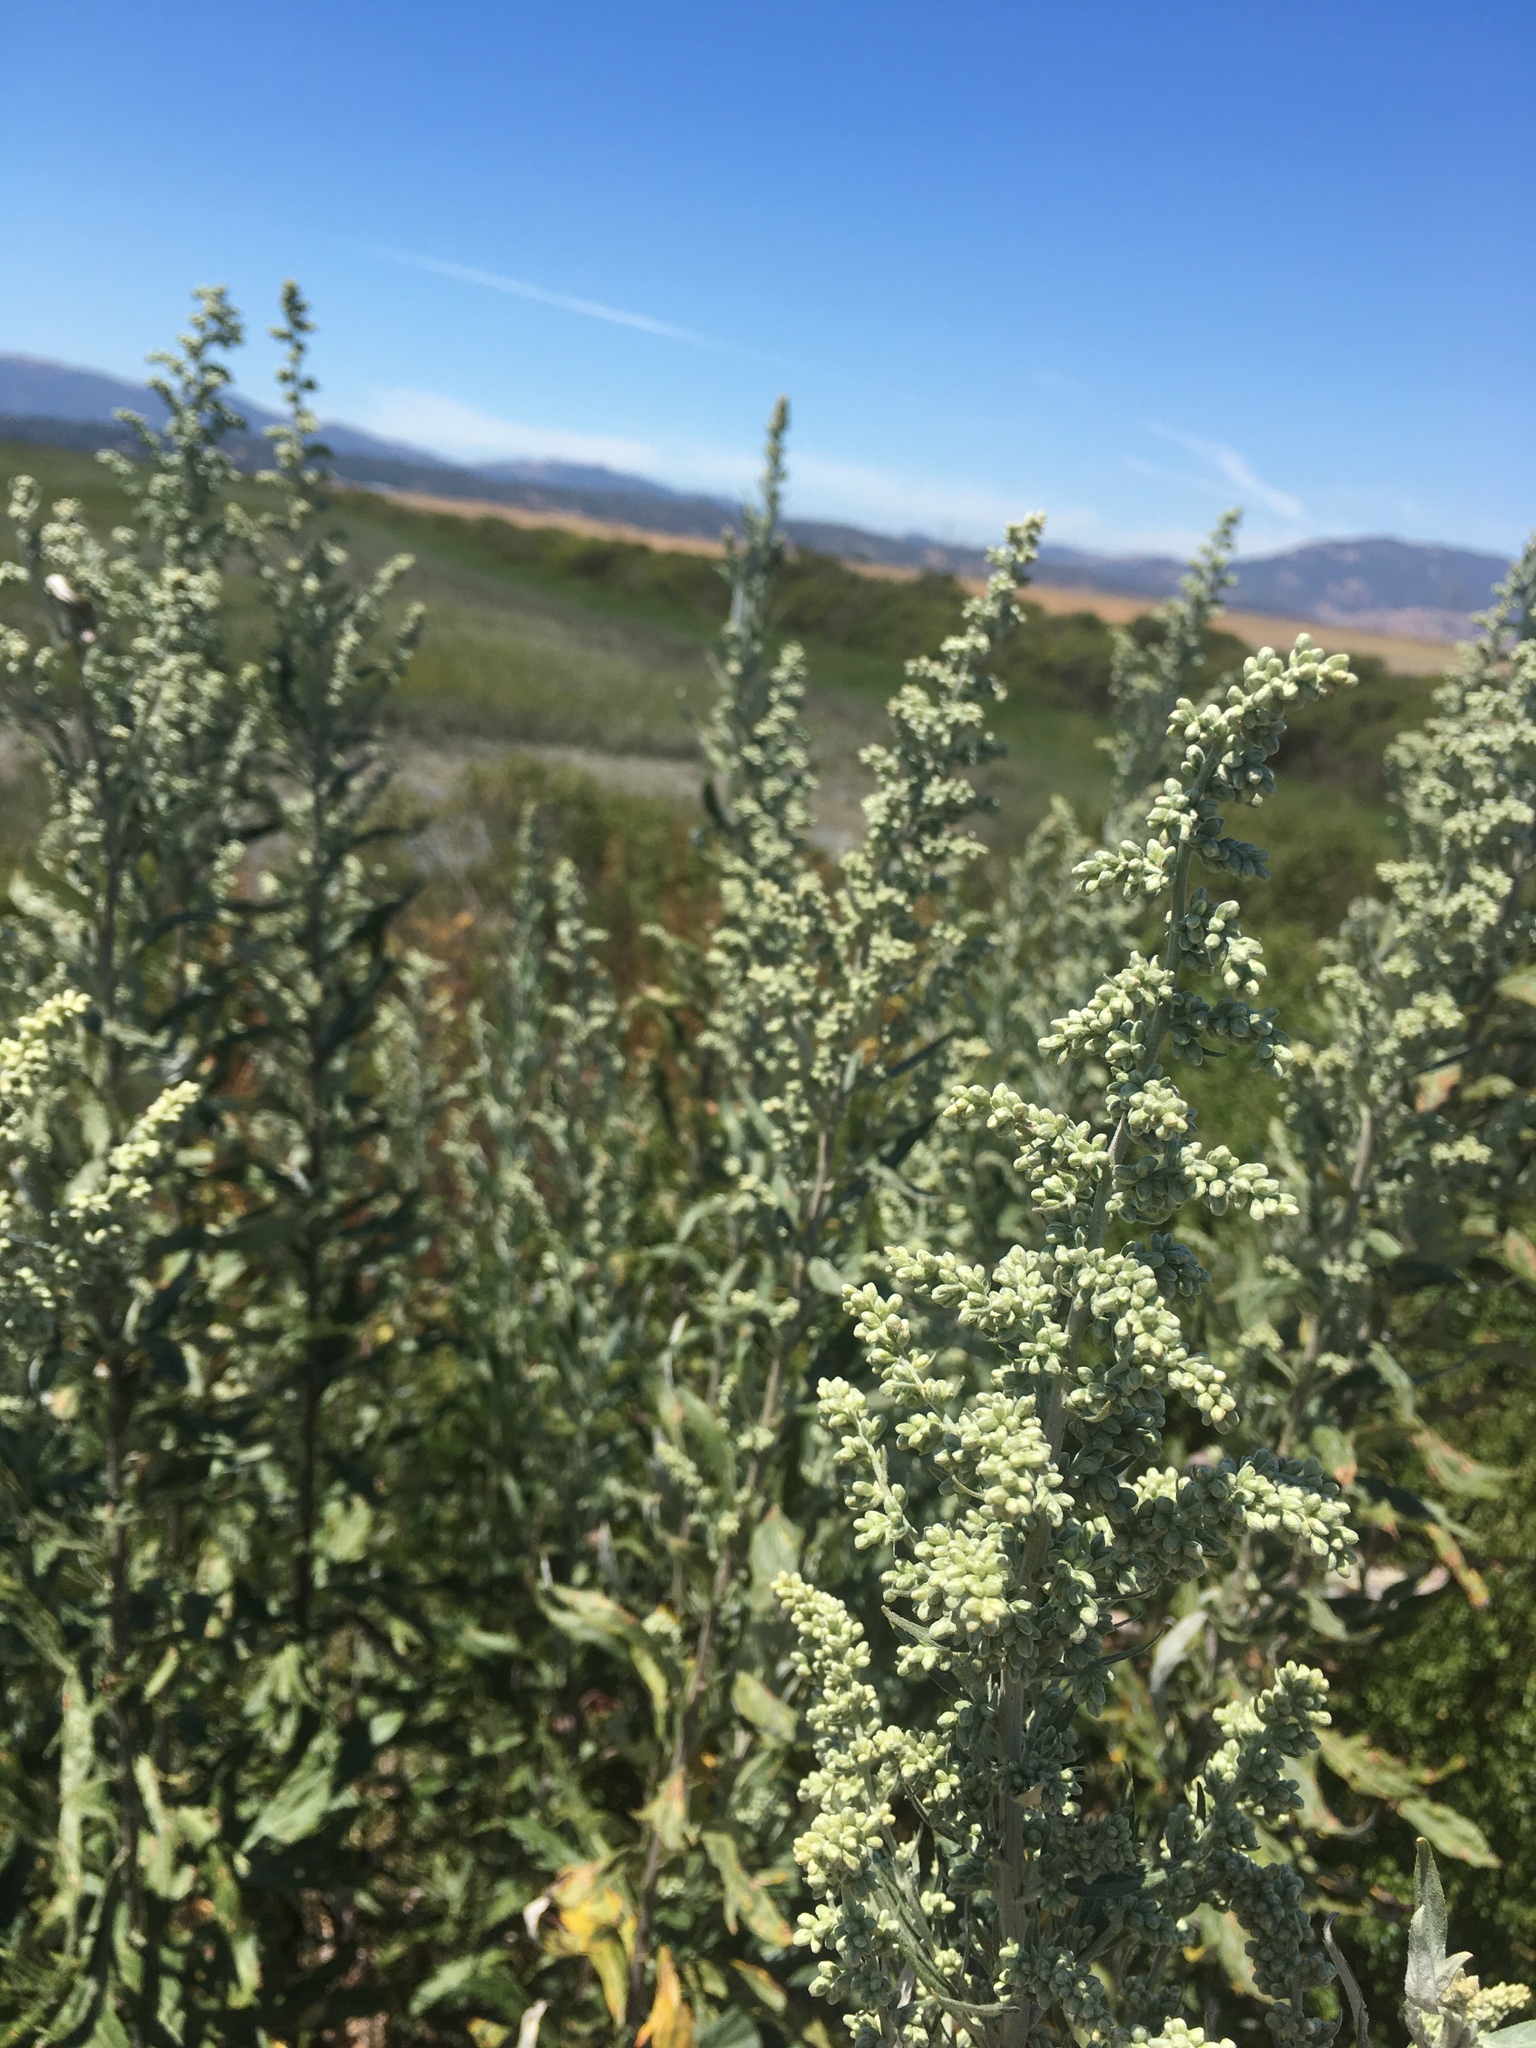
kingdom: Plantae
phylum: Tracheophyta
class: Magnoliopsida
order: Asterales
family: Asteraceae
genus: Artemisia
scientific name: Artemisia douglasiana
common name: Northwest mugwort
